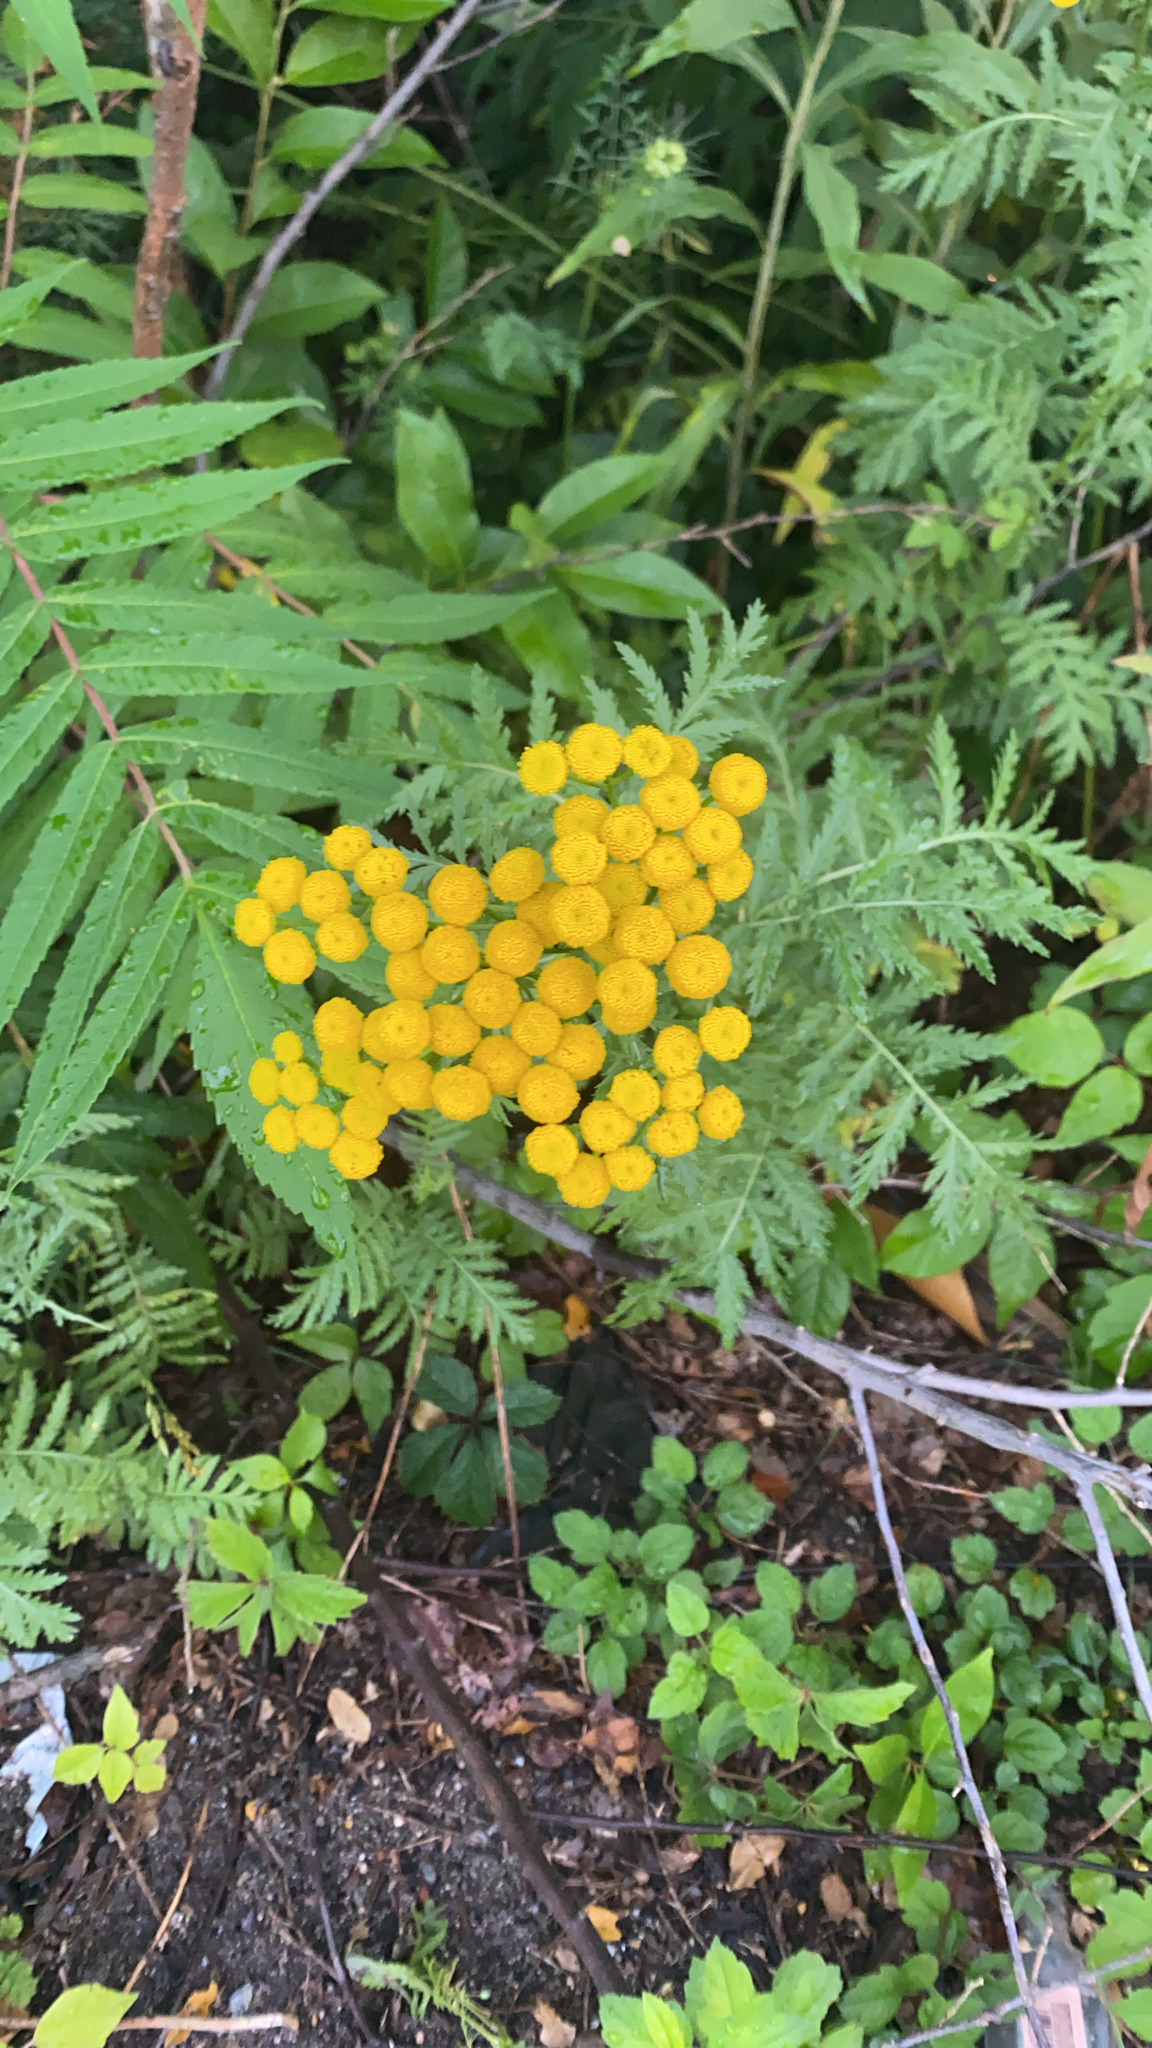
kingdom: Plantae
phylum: Tracheophyta
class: Magnoliopsida
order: Asterales
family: Asteraceae
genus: Tanacetum
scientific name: Tanacetum vulgare
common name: Common tansy
